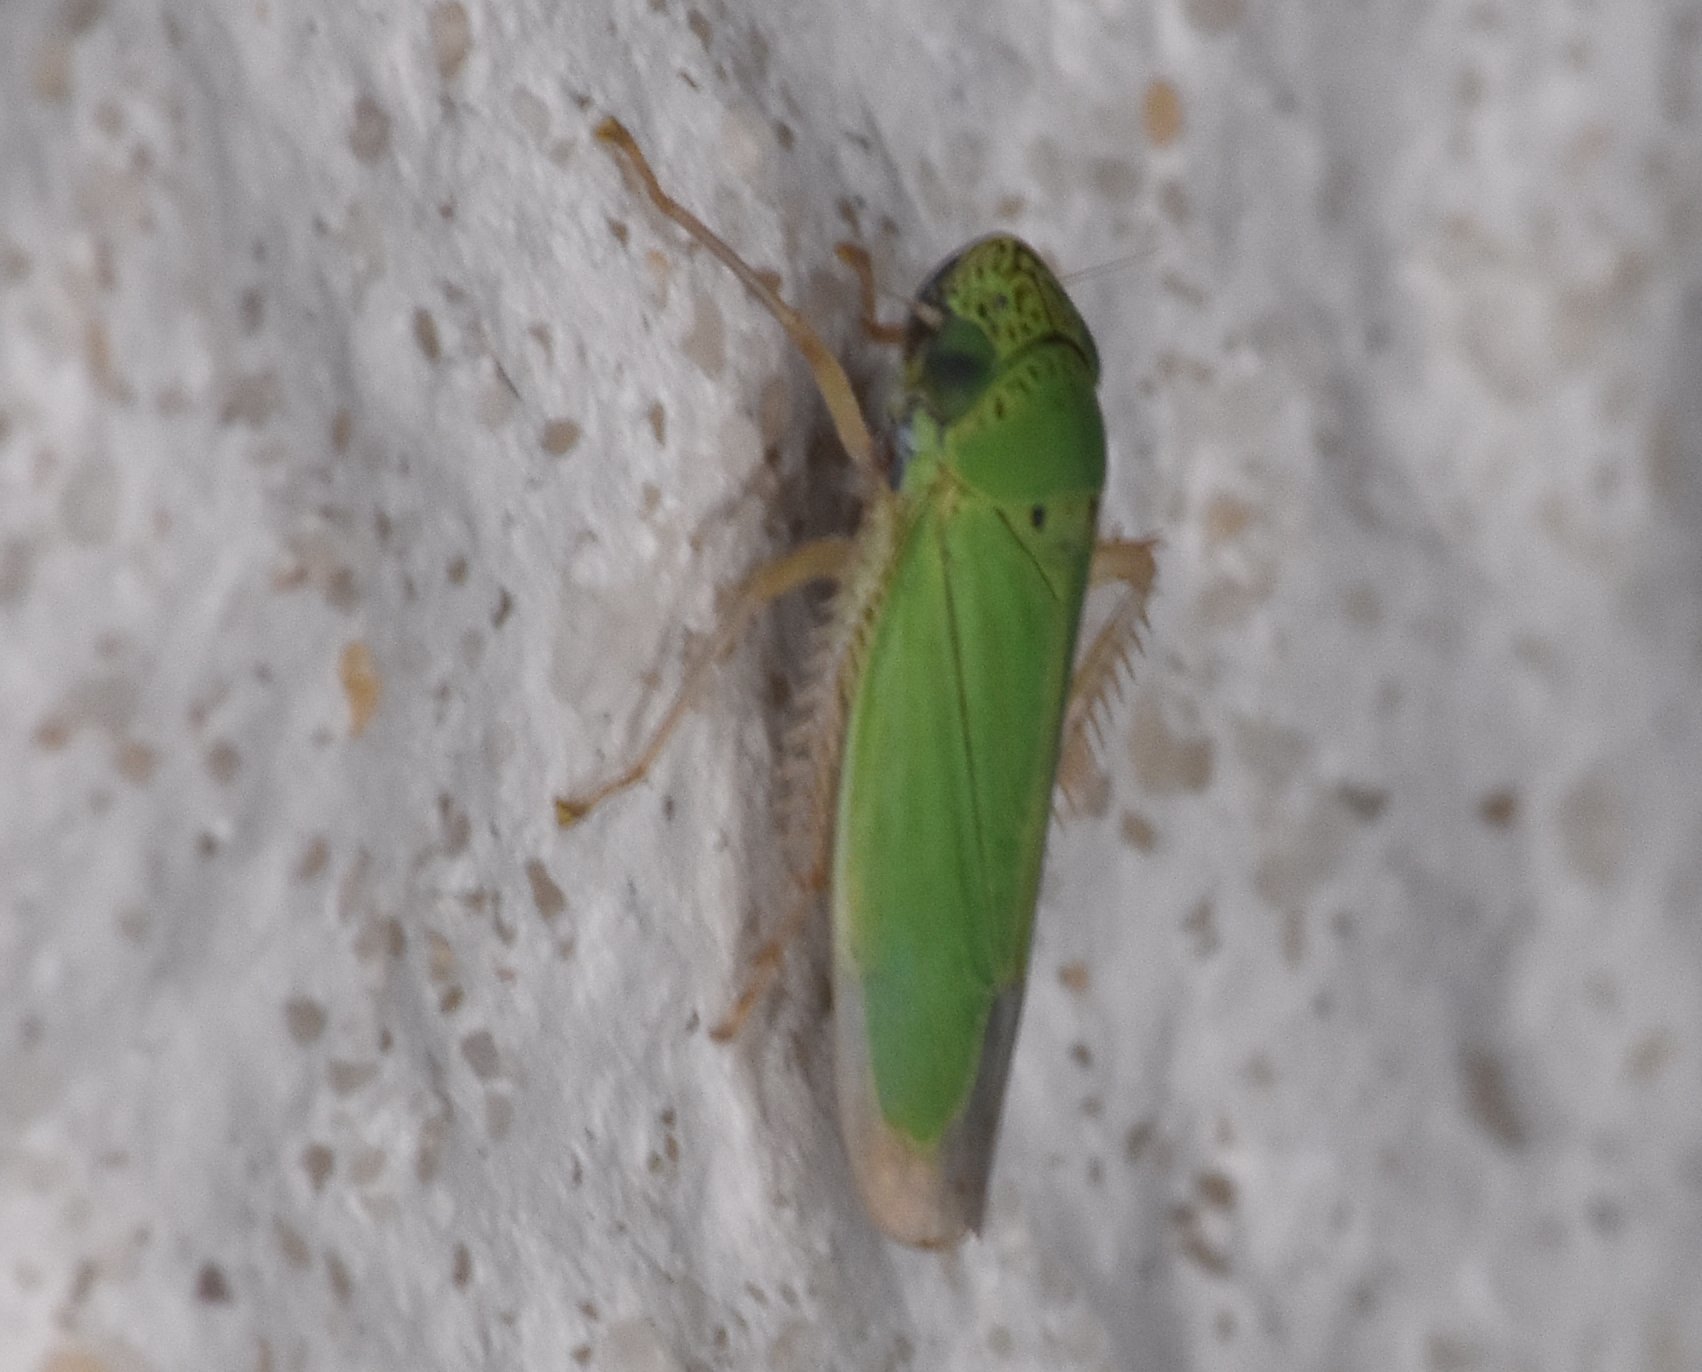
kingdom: Animalia
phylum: Arthropoda
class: Insecta
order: Hemiptera
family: Cicadellidae
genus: Hortensia
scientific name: Hortensia similis
